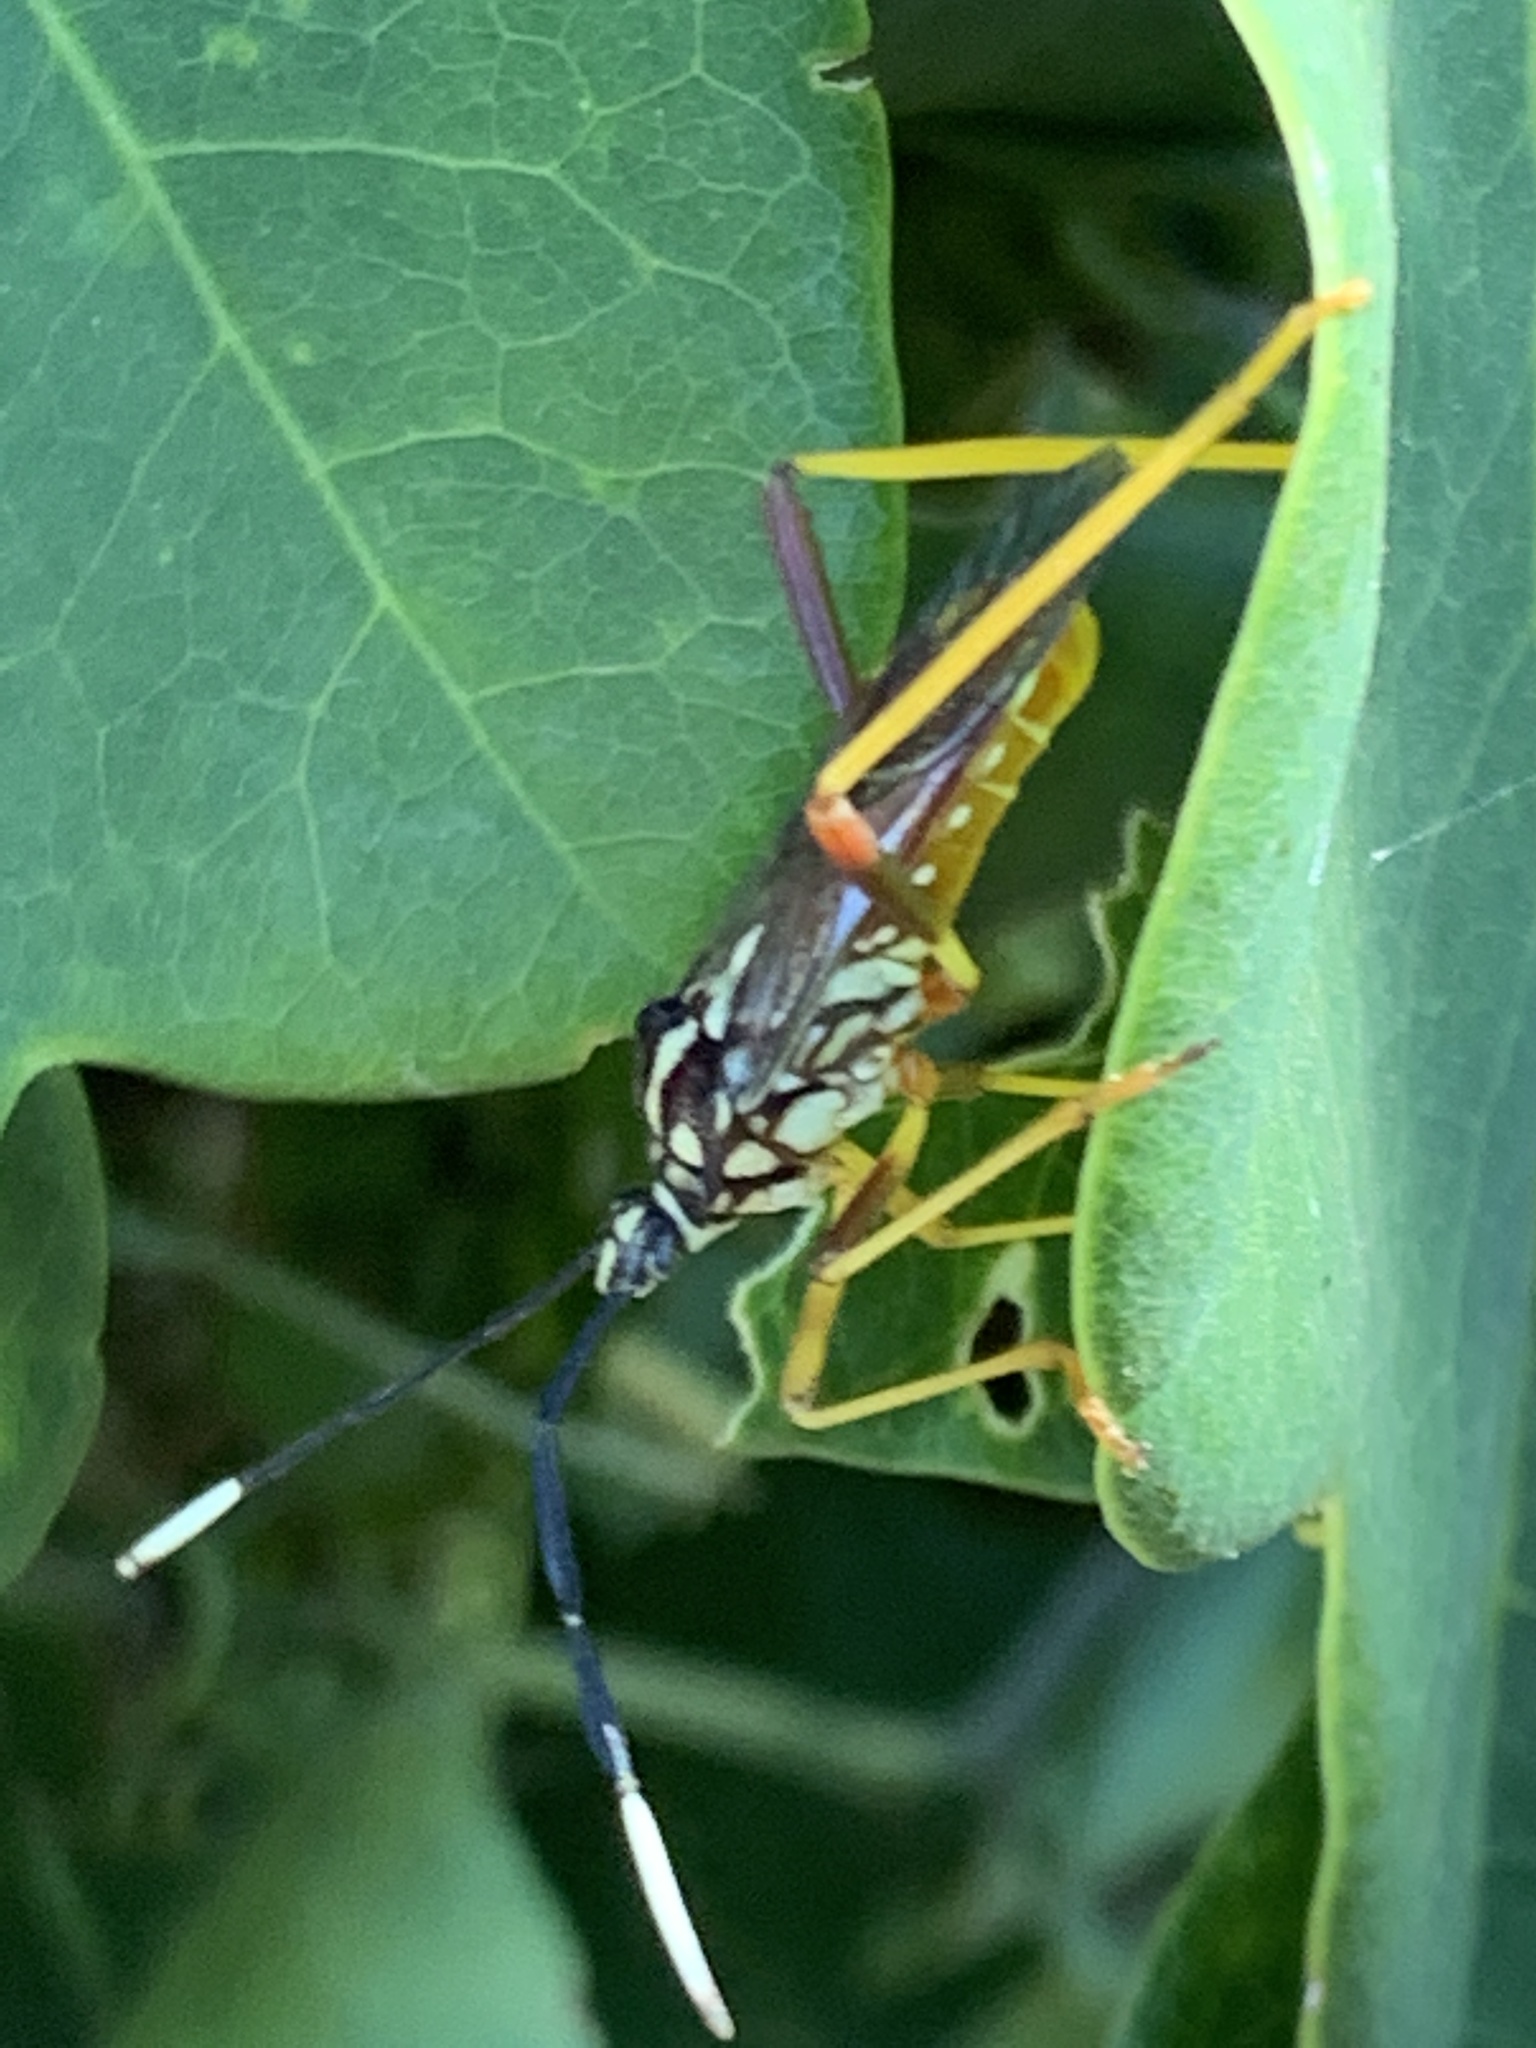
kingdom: Animalia
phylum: Arthropoda
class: Insecta
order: Hemiptera
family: Coreidae
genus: Holhymenia
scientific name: Holhymenia histrio
